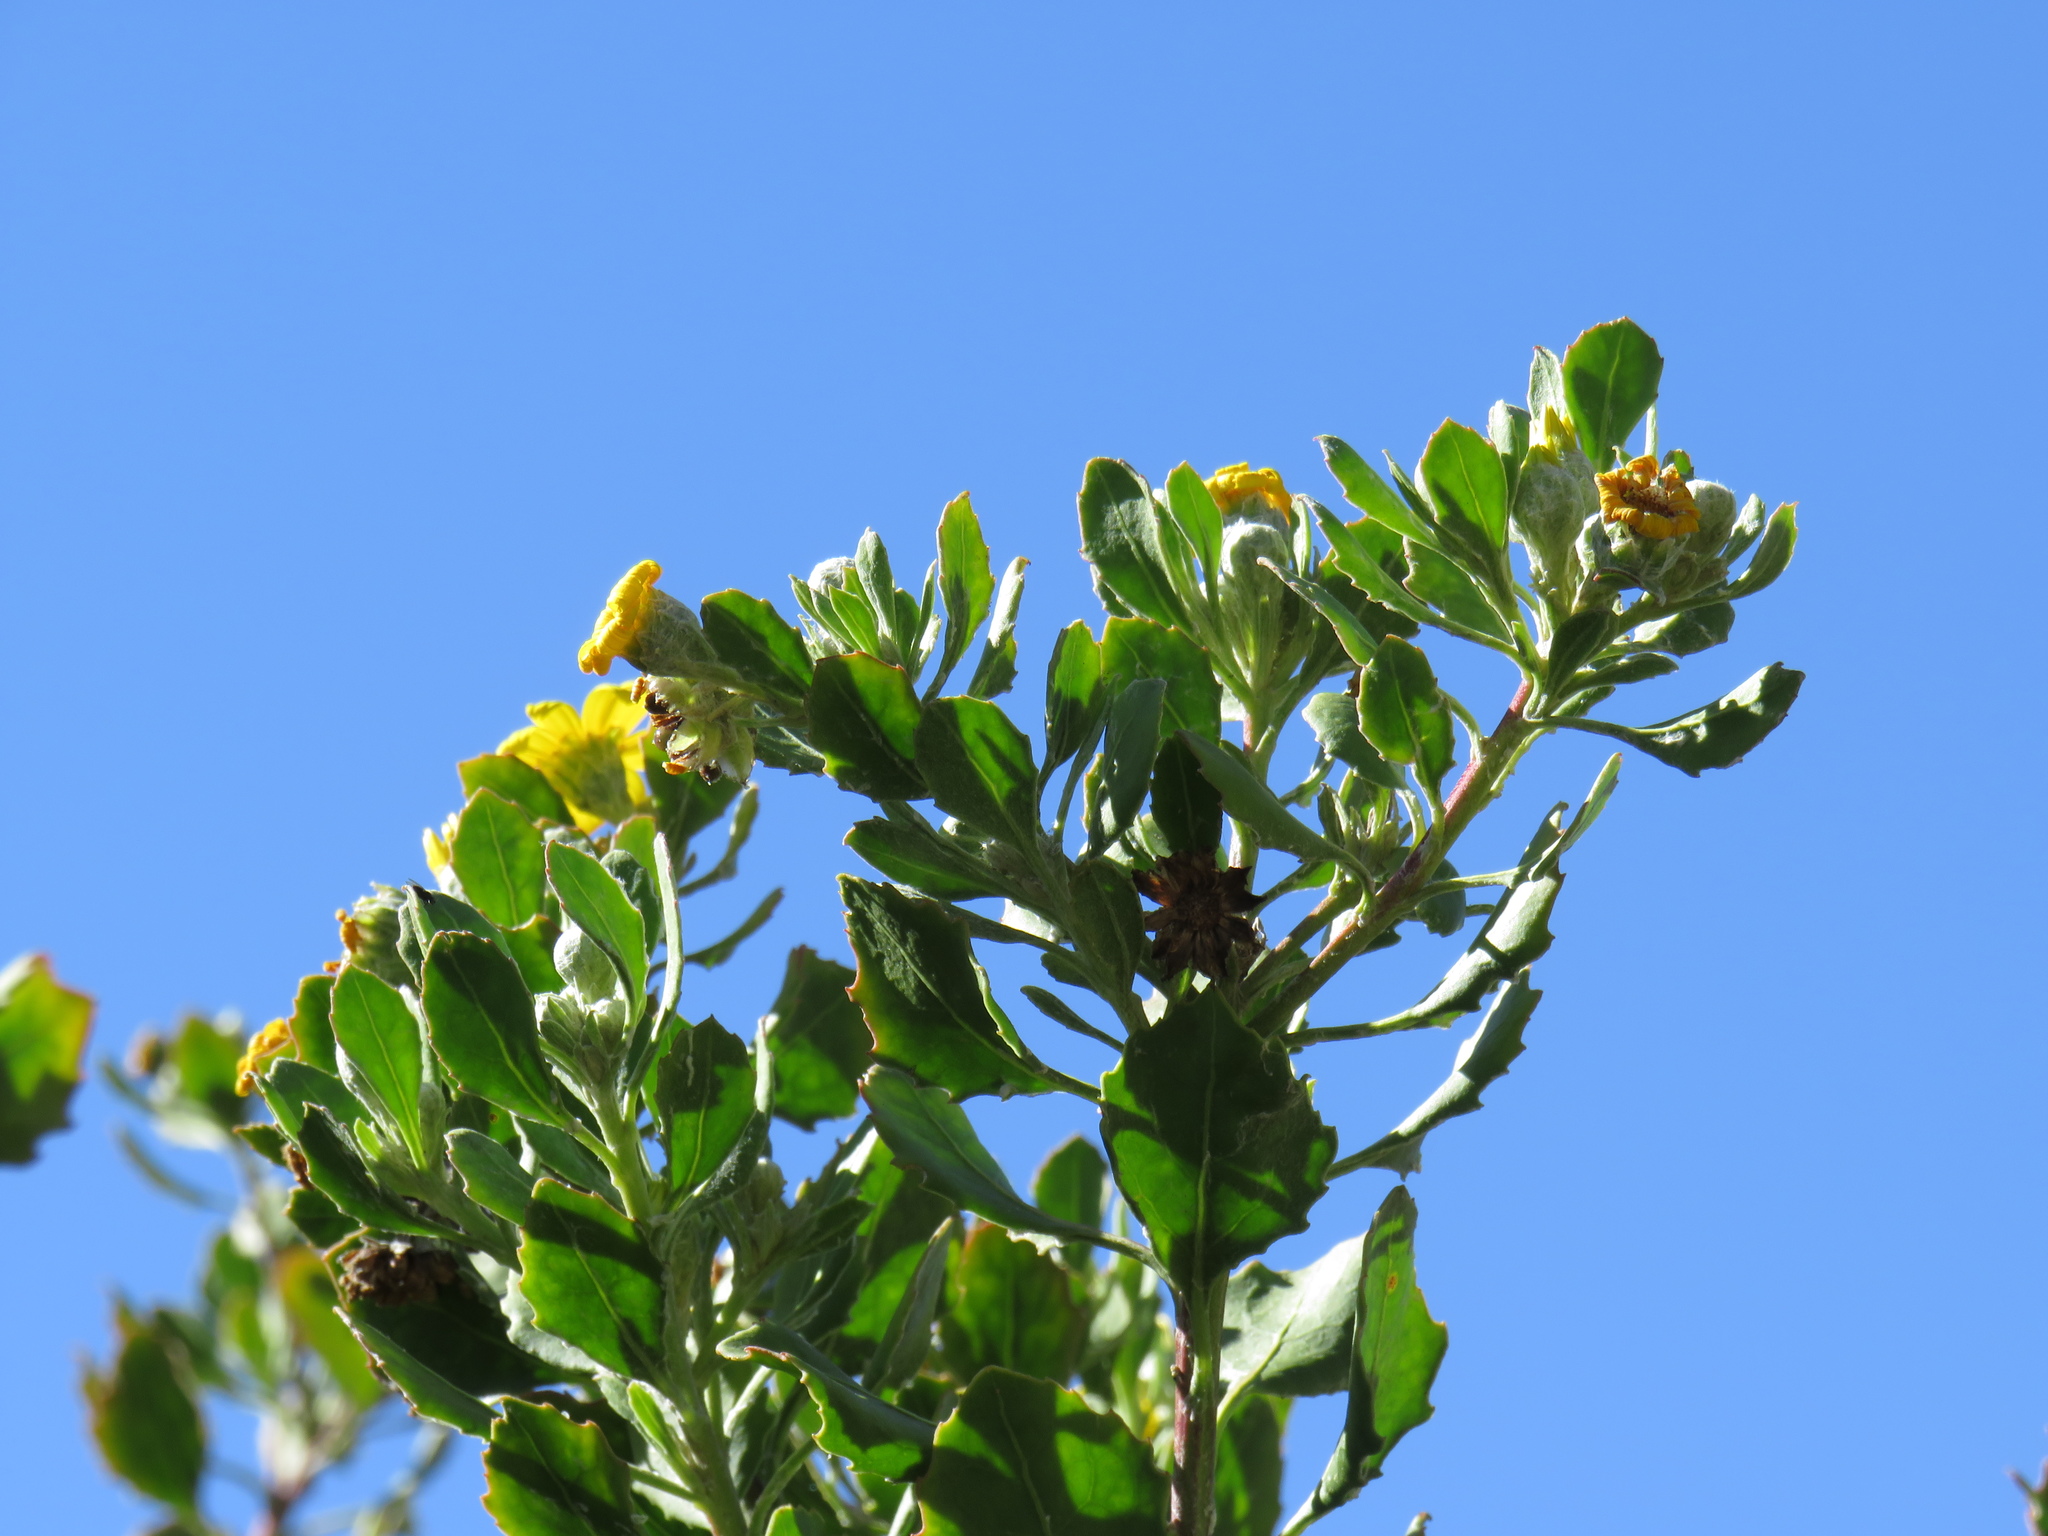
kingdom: Plantae
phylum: Tracheophyta
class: Magnoliopsida
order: Asterales
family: Asteraceae
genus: Osteospermum
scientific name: Osteospermum moniliferum
